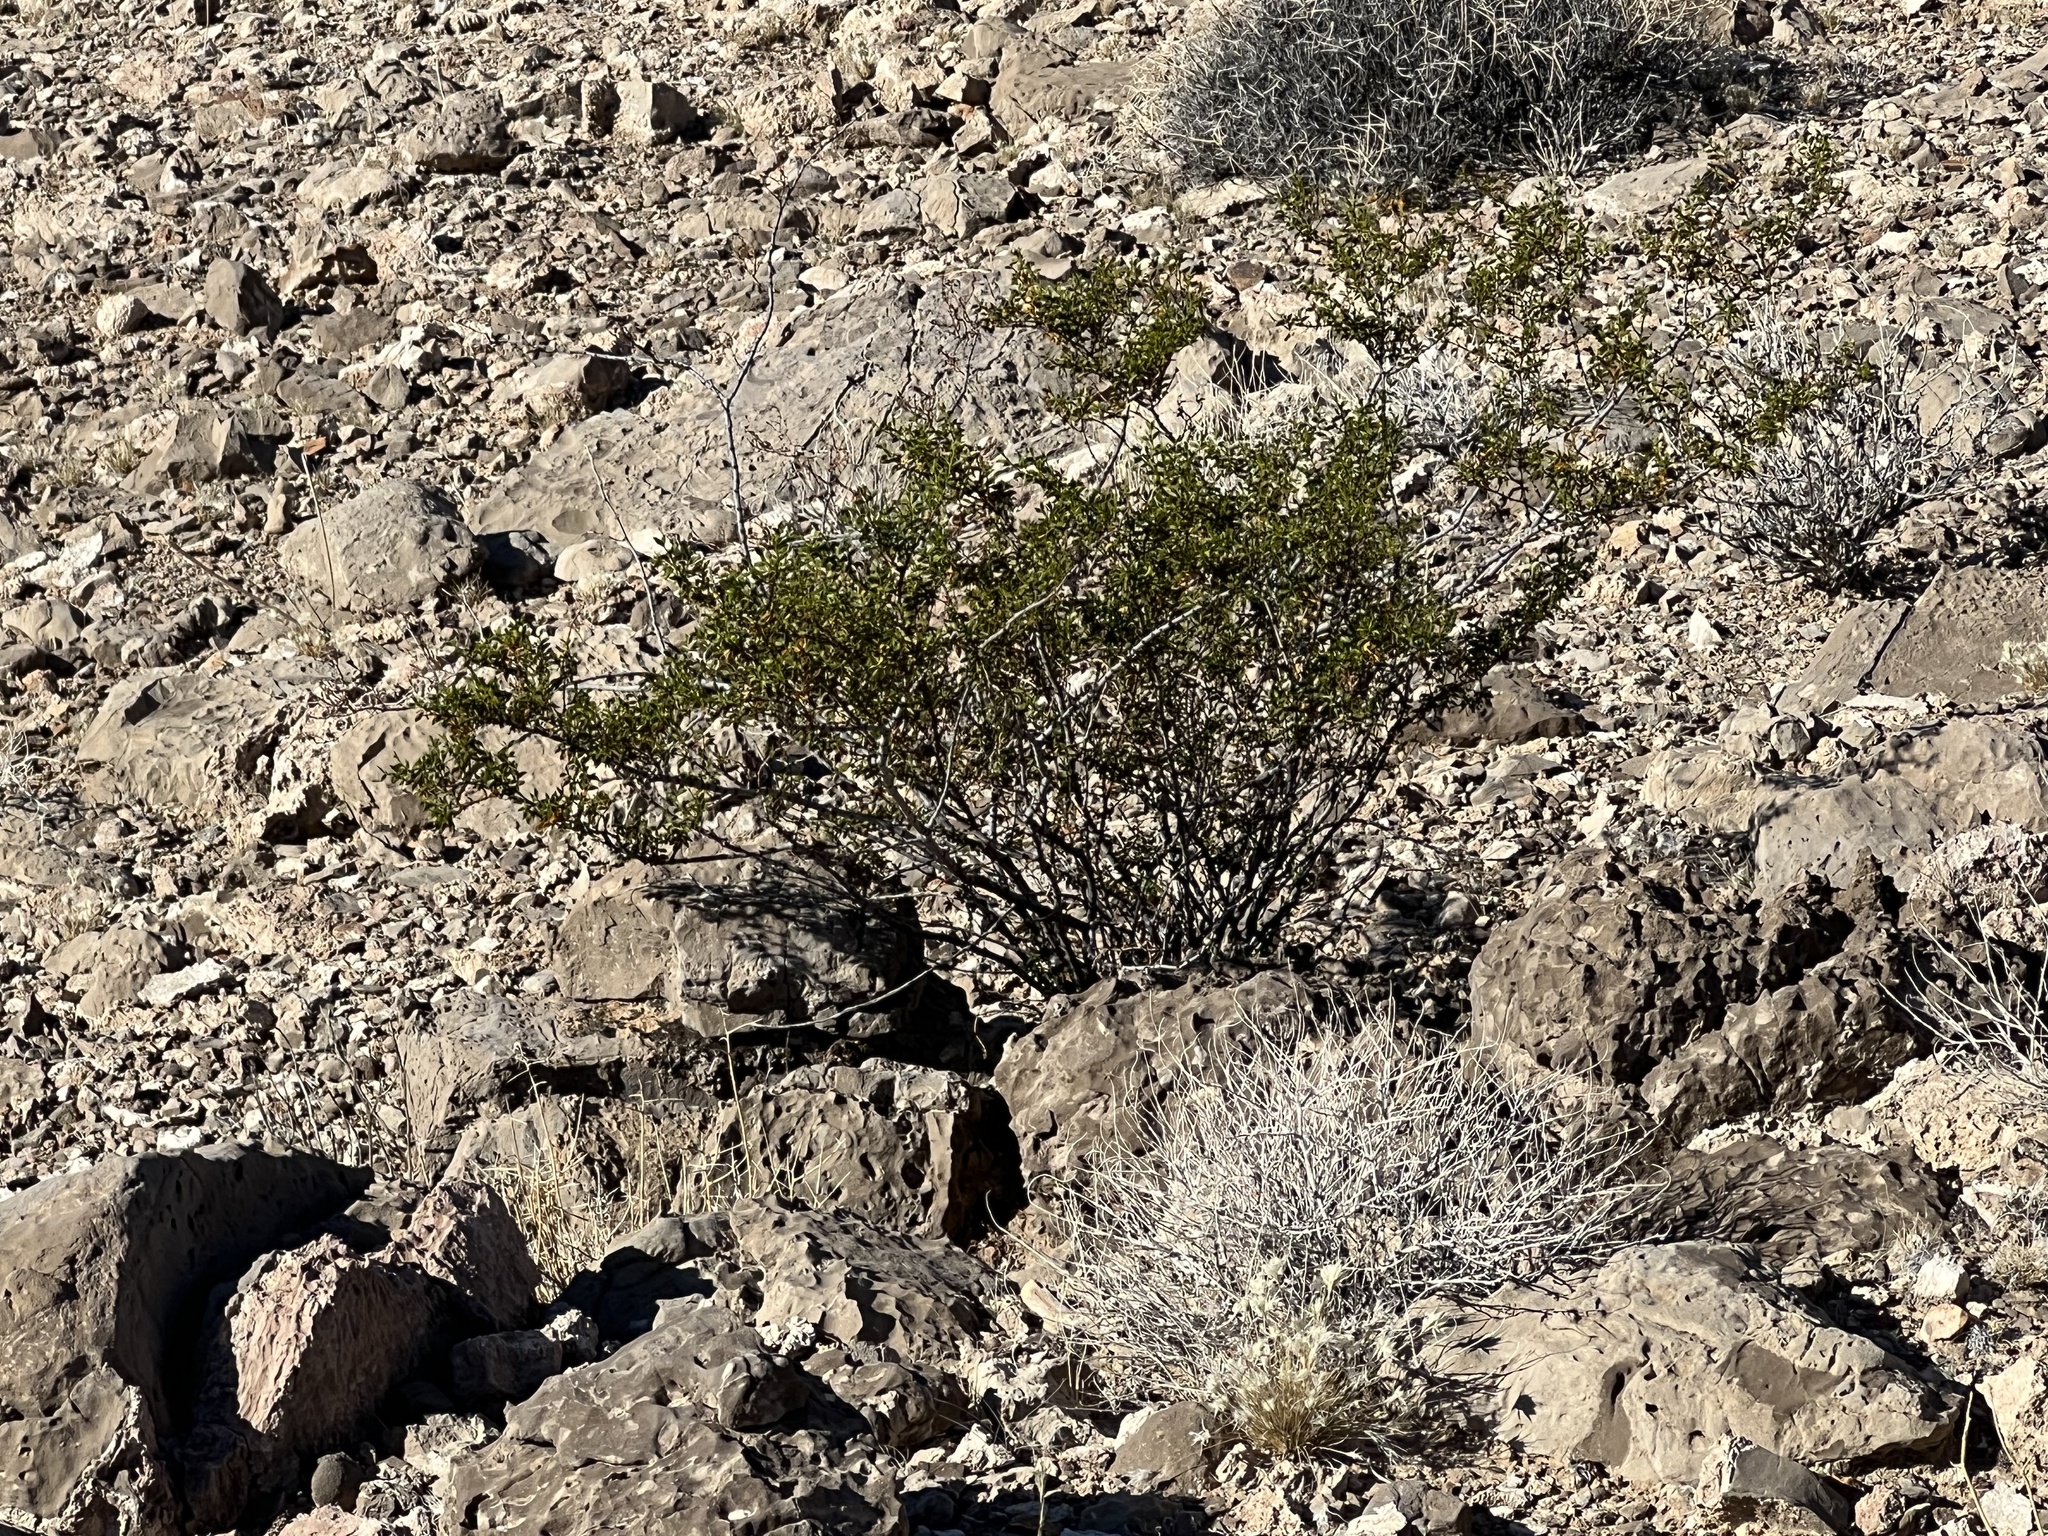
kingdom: Plantae
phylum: Tracheophyta
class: Magnoliopsida
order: Zygophyllales
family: Zygophyllaceae
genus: Larrea
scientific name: Larrea tridentata
